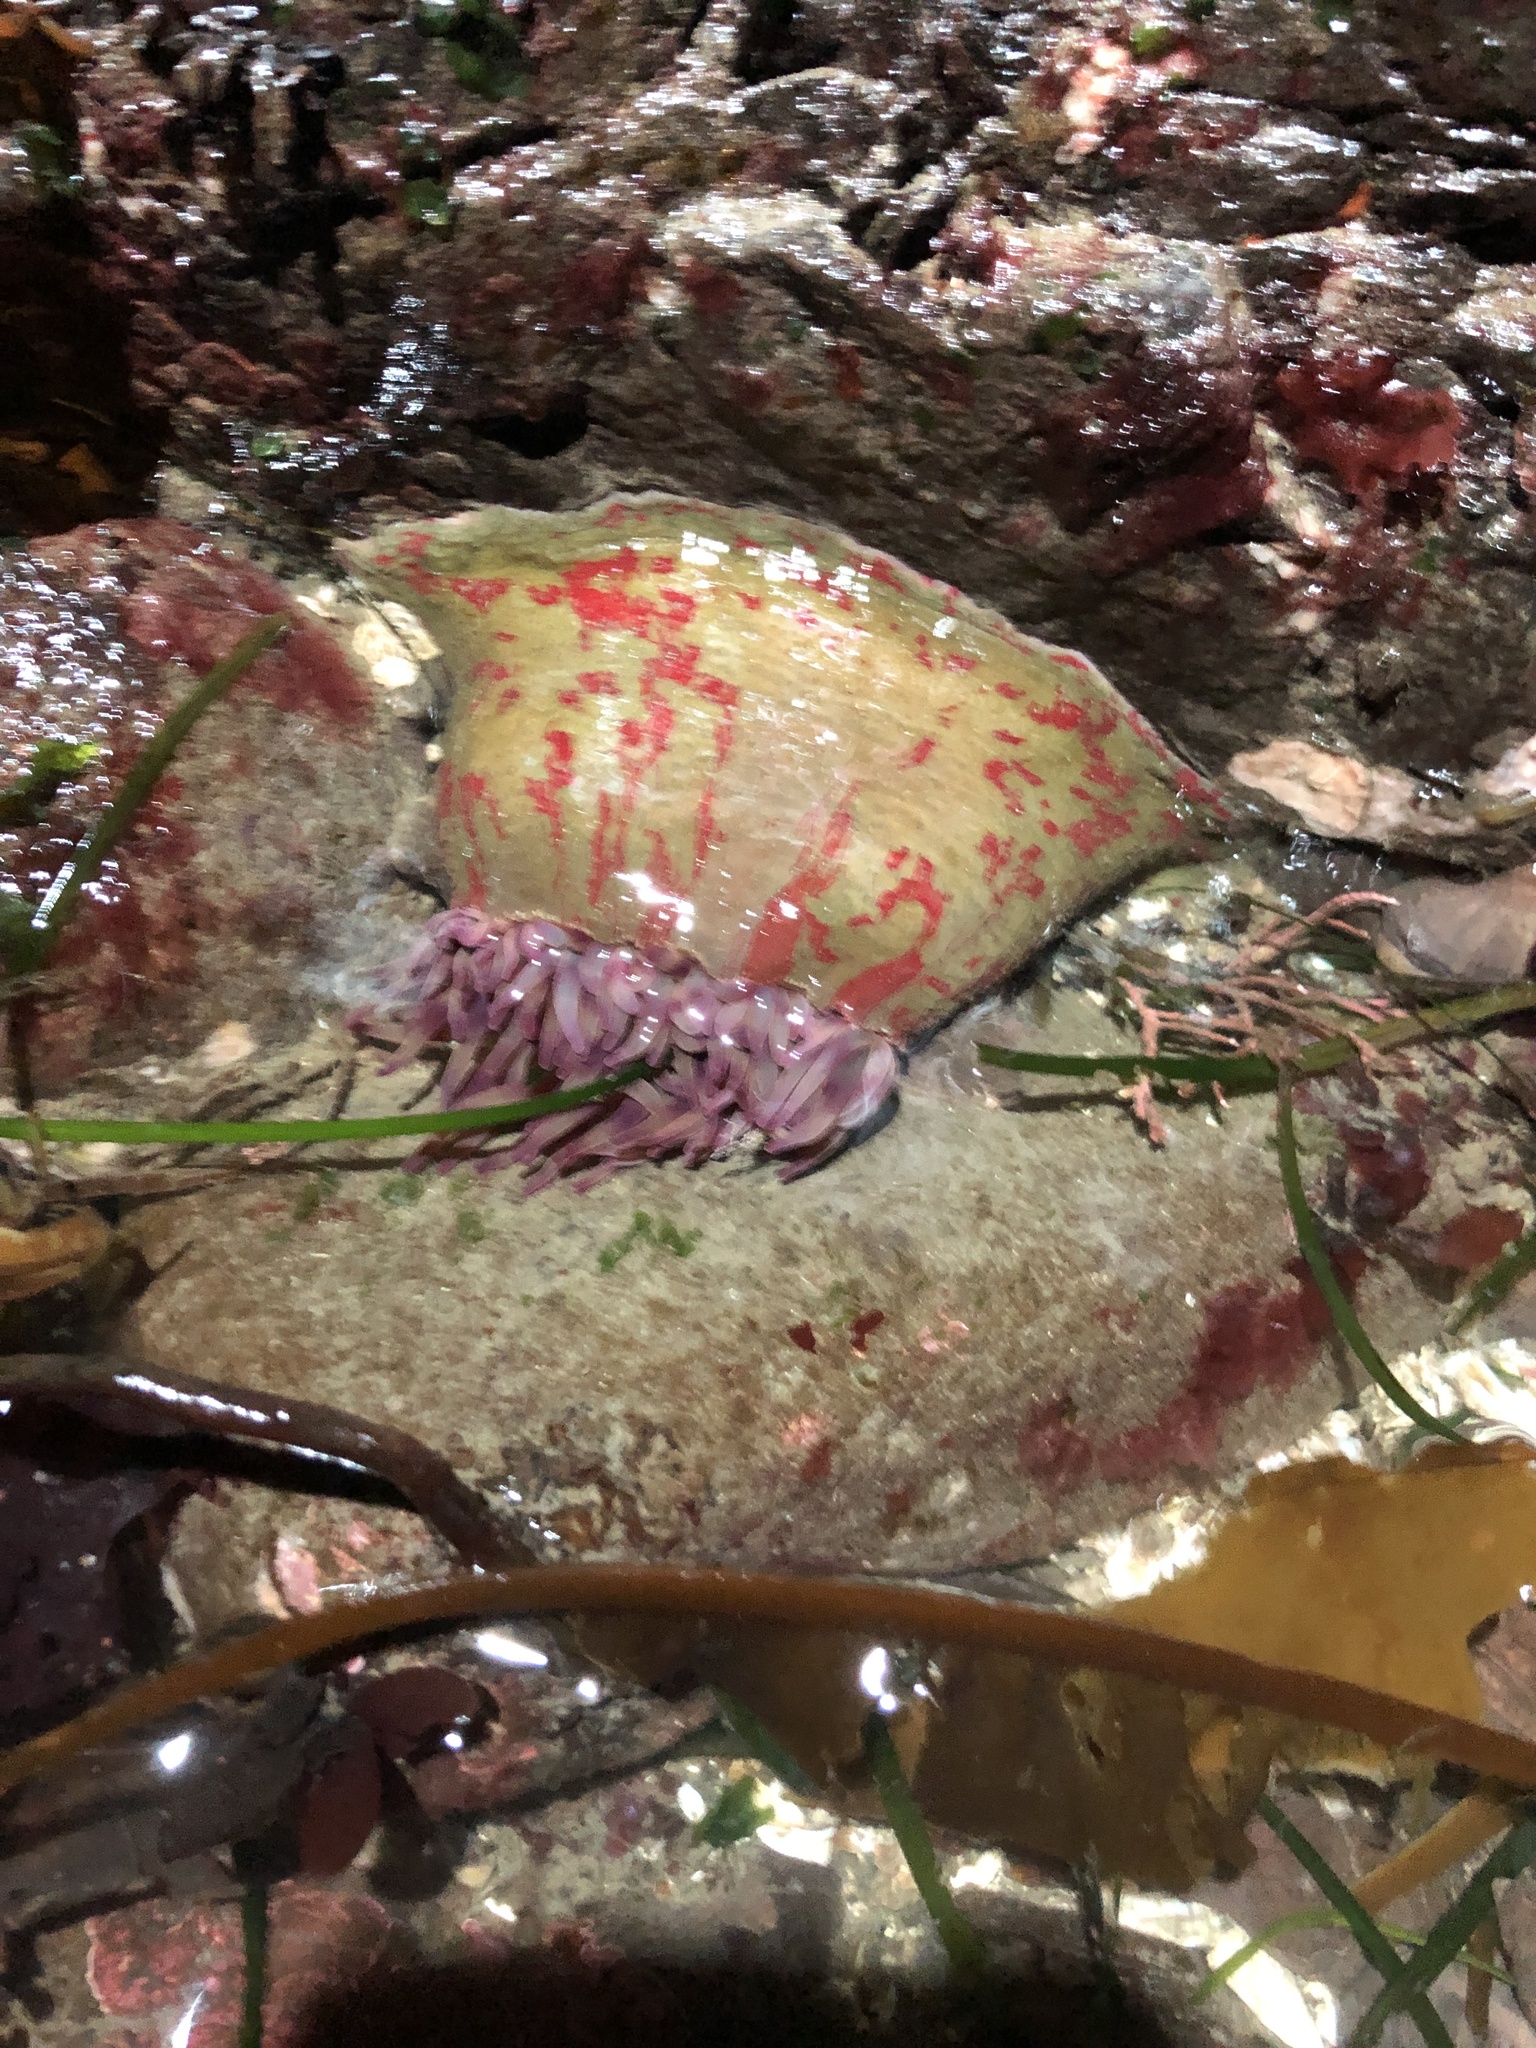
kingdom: Animalia
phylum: Cnidaria
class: Anthozoa
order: Actiniaria
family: Actiniidae
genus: Urticina
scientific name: Urticina grebelnyi
